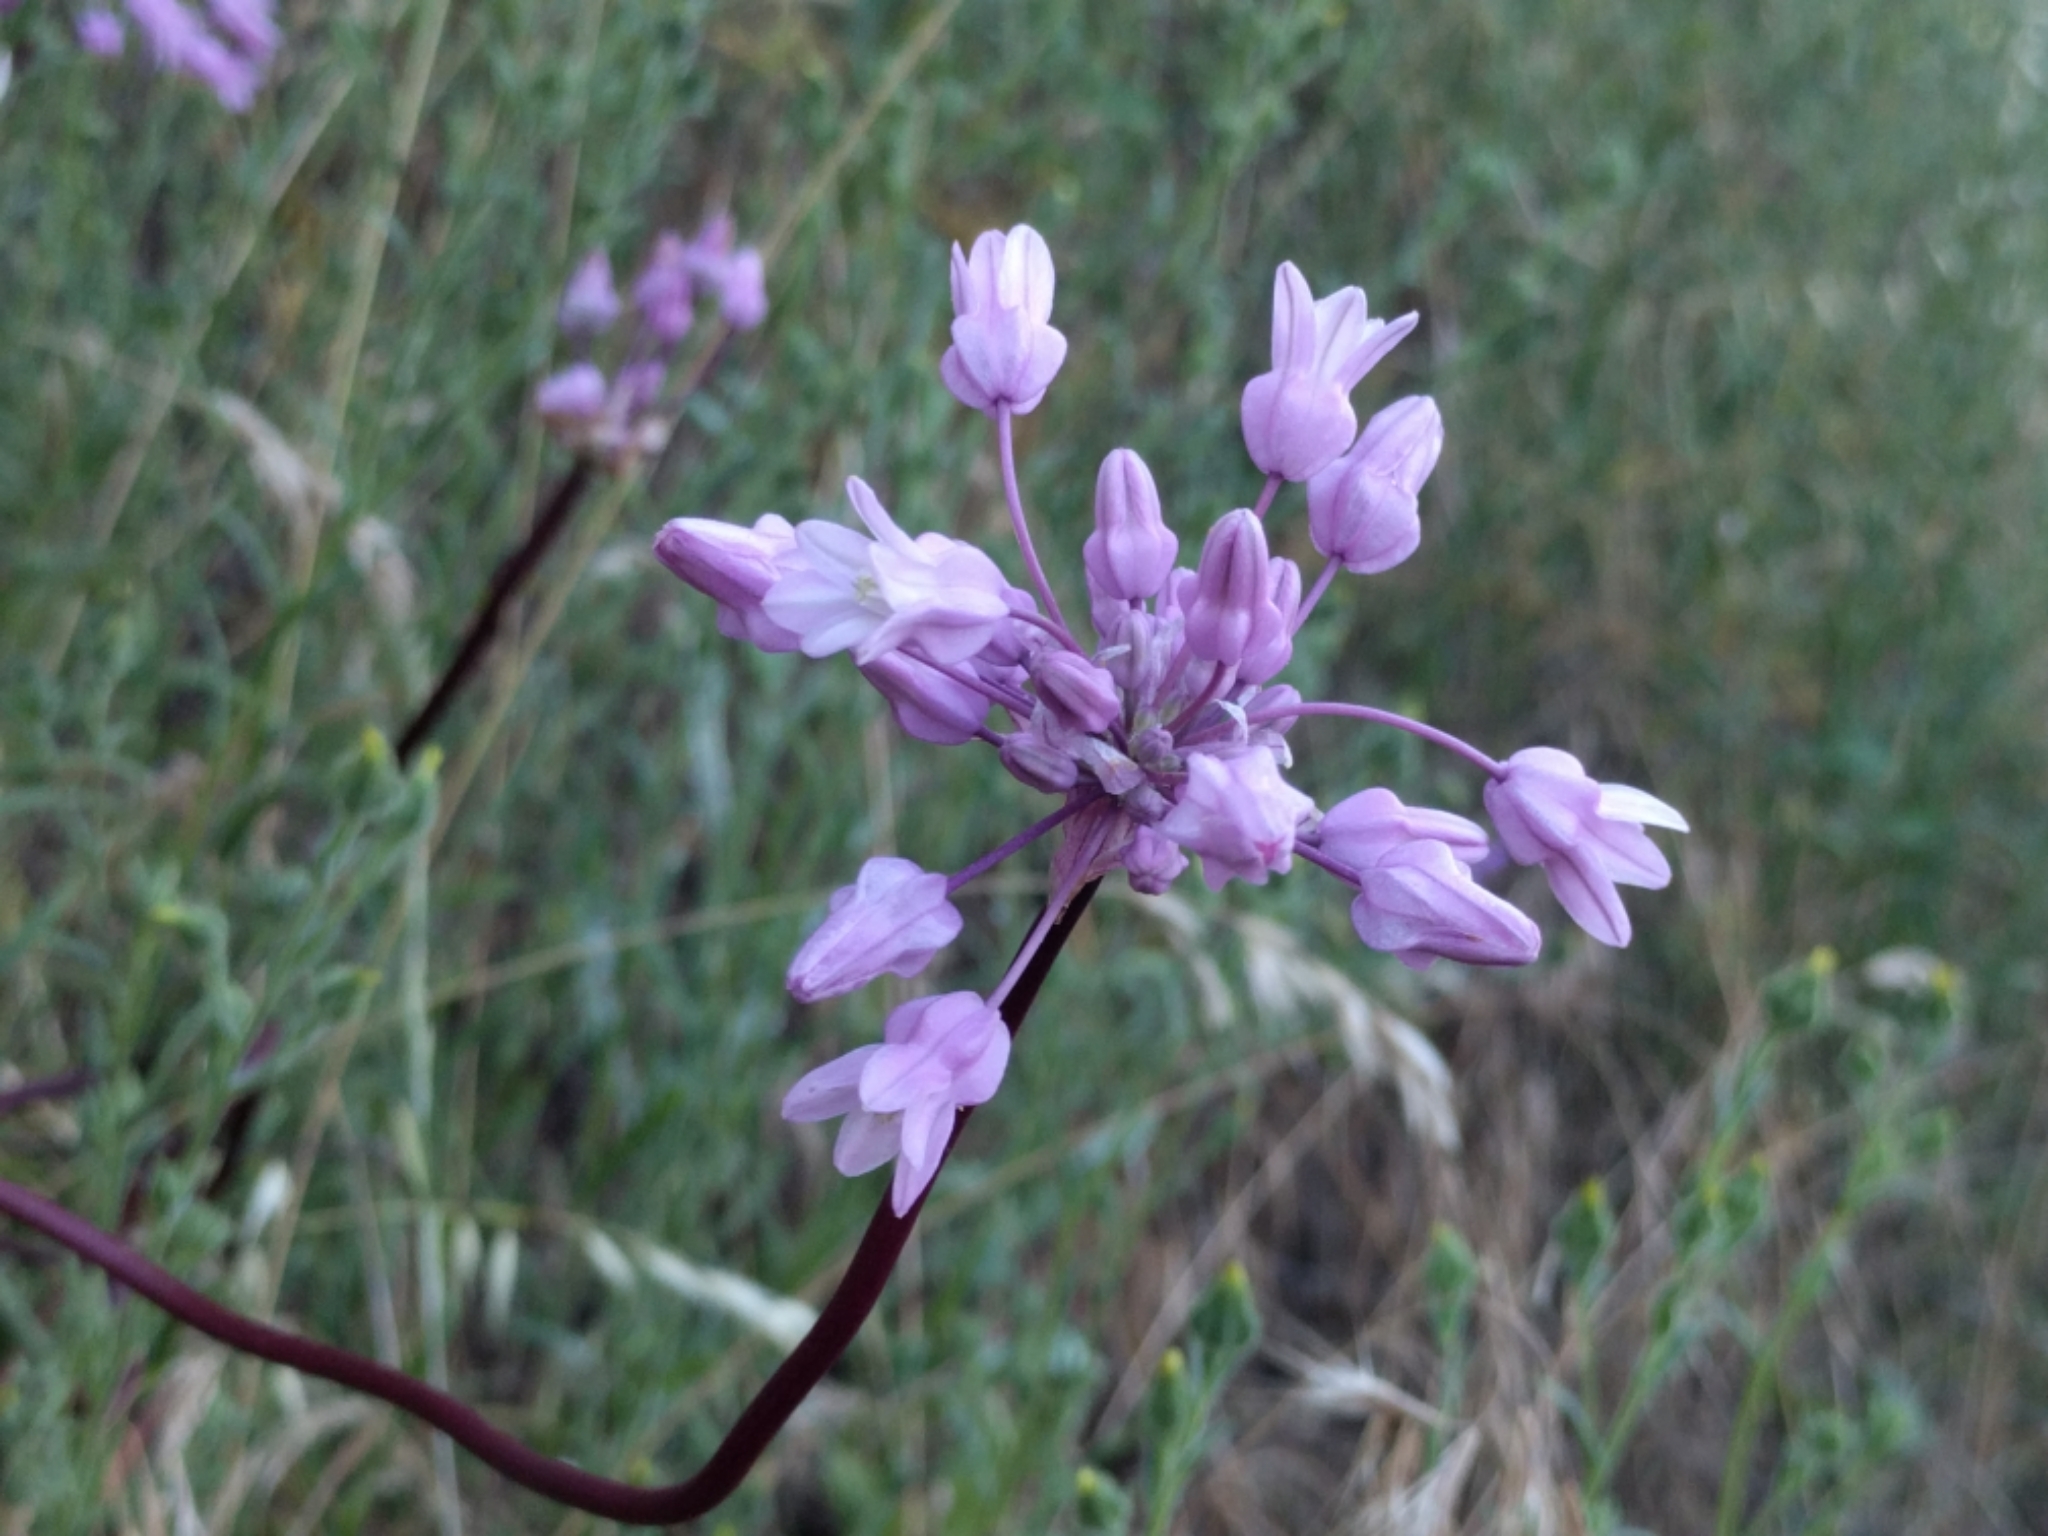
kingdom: Plantae
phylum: Tracheophyta
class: Liliopsida
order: Asparagales
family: Asparagaceae
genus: Dichelostemma
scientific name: Dichelostemma volubile
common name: Trining brodiaea
